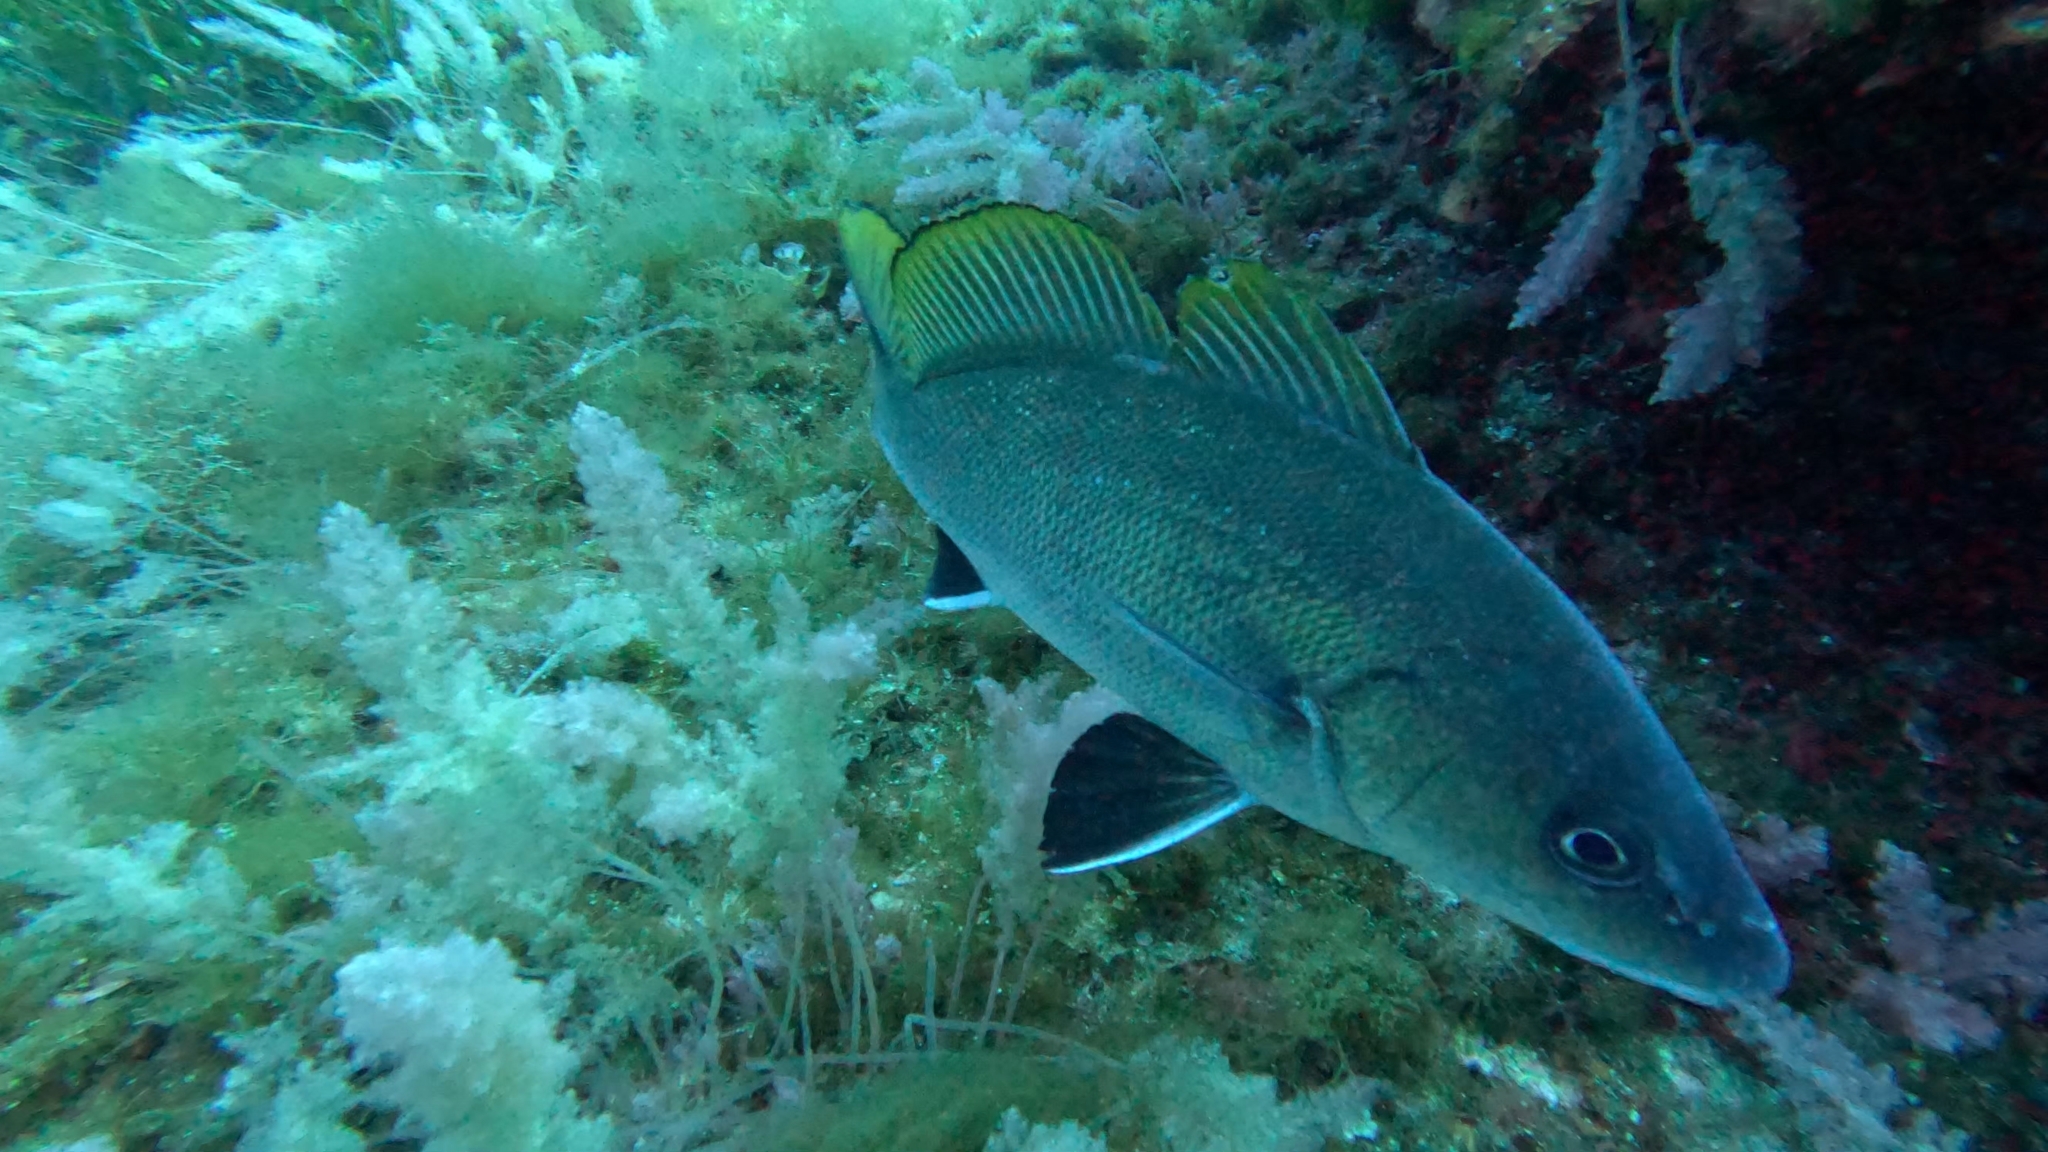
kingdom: Animalia
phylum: Chordata
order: Perciformes
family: Sciaenidae
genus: Sciaena
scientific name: Sciaena umbra
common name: Brown meagre
